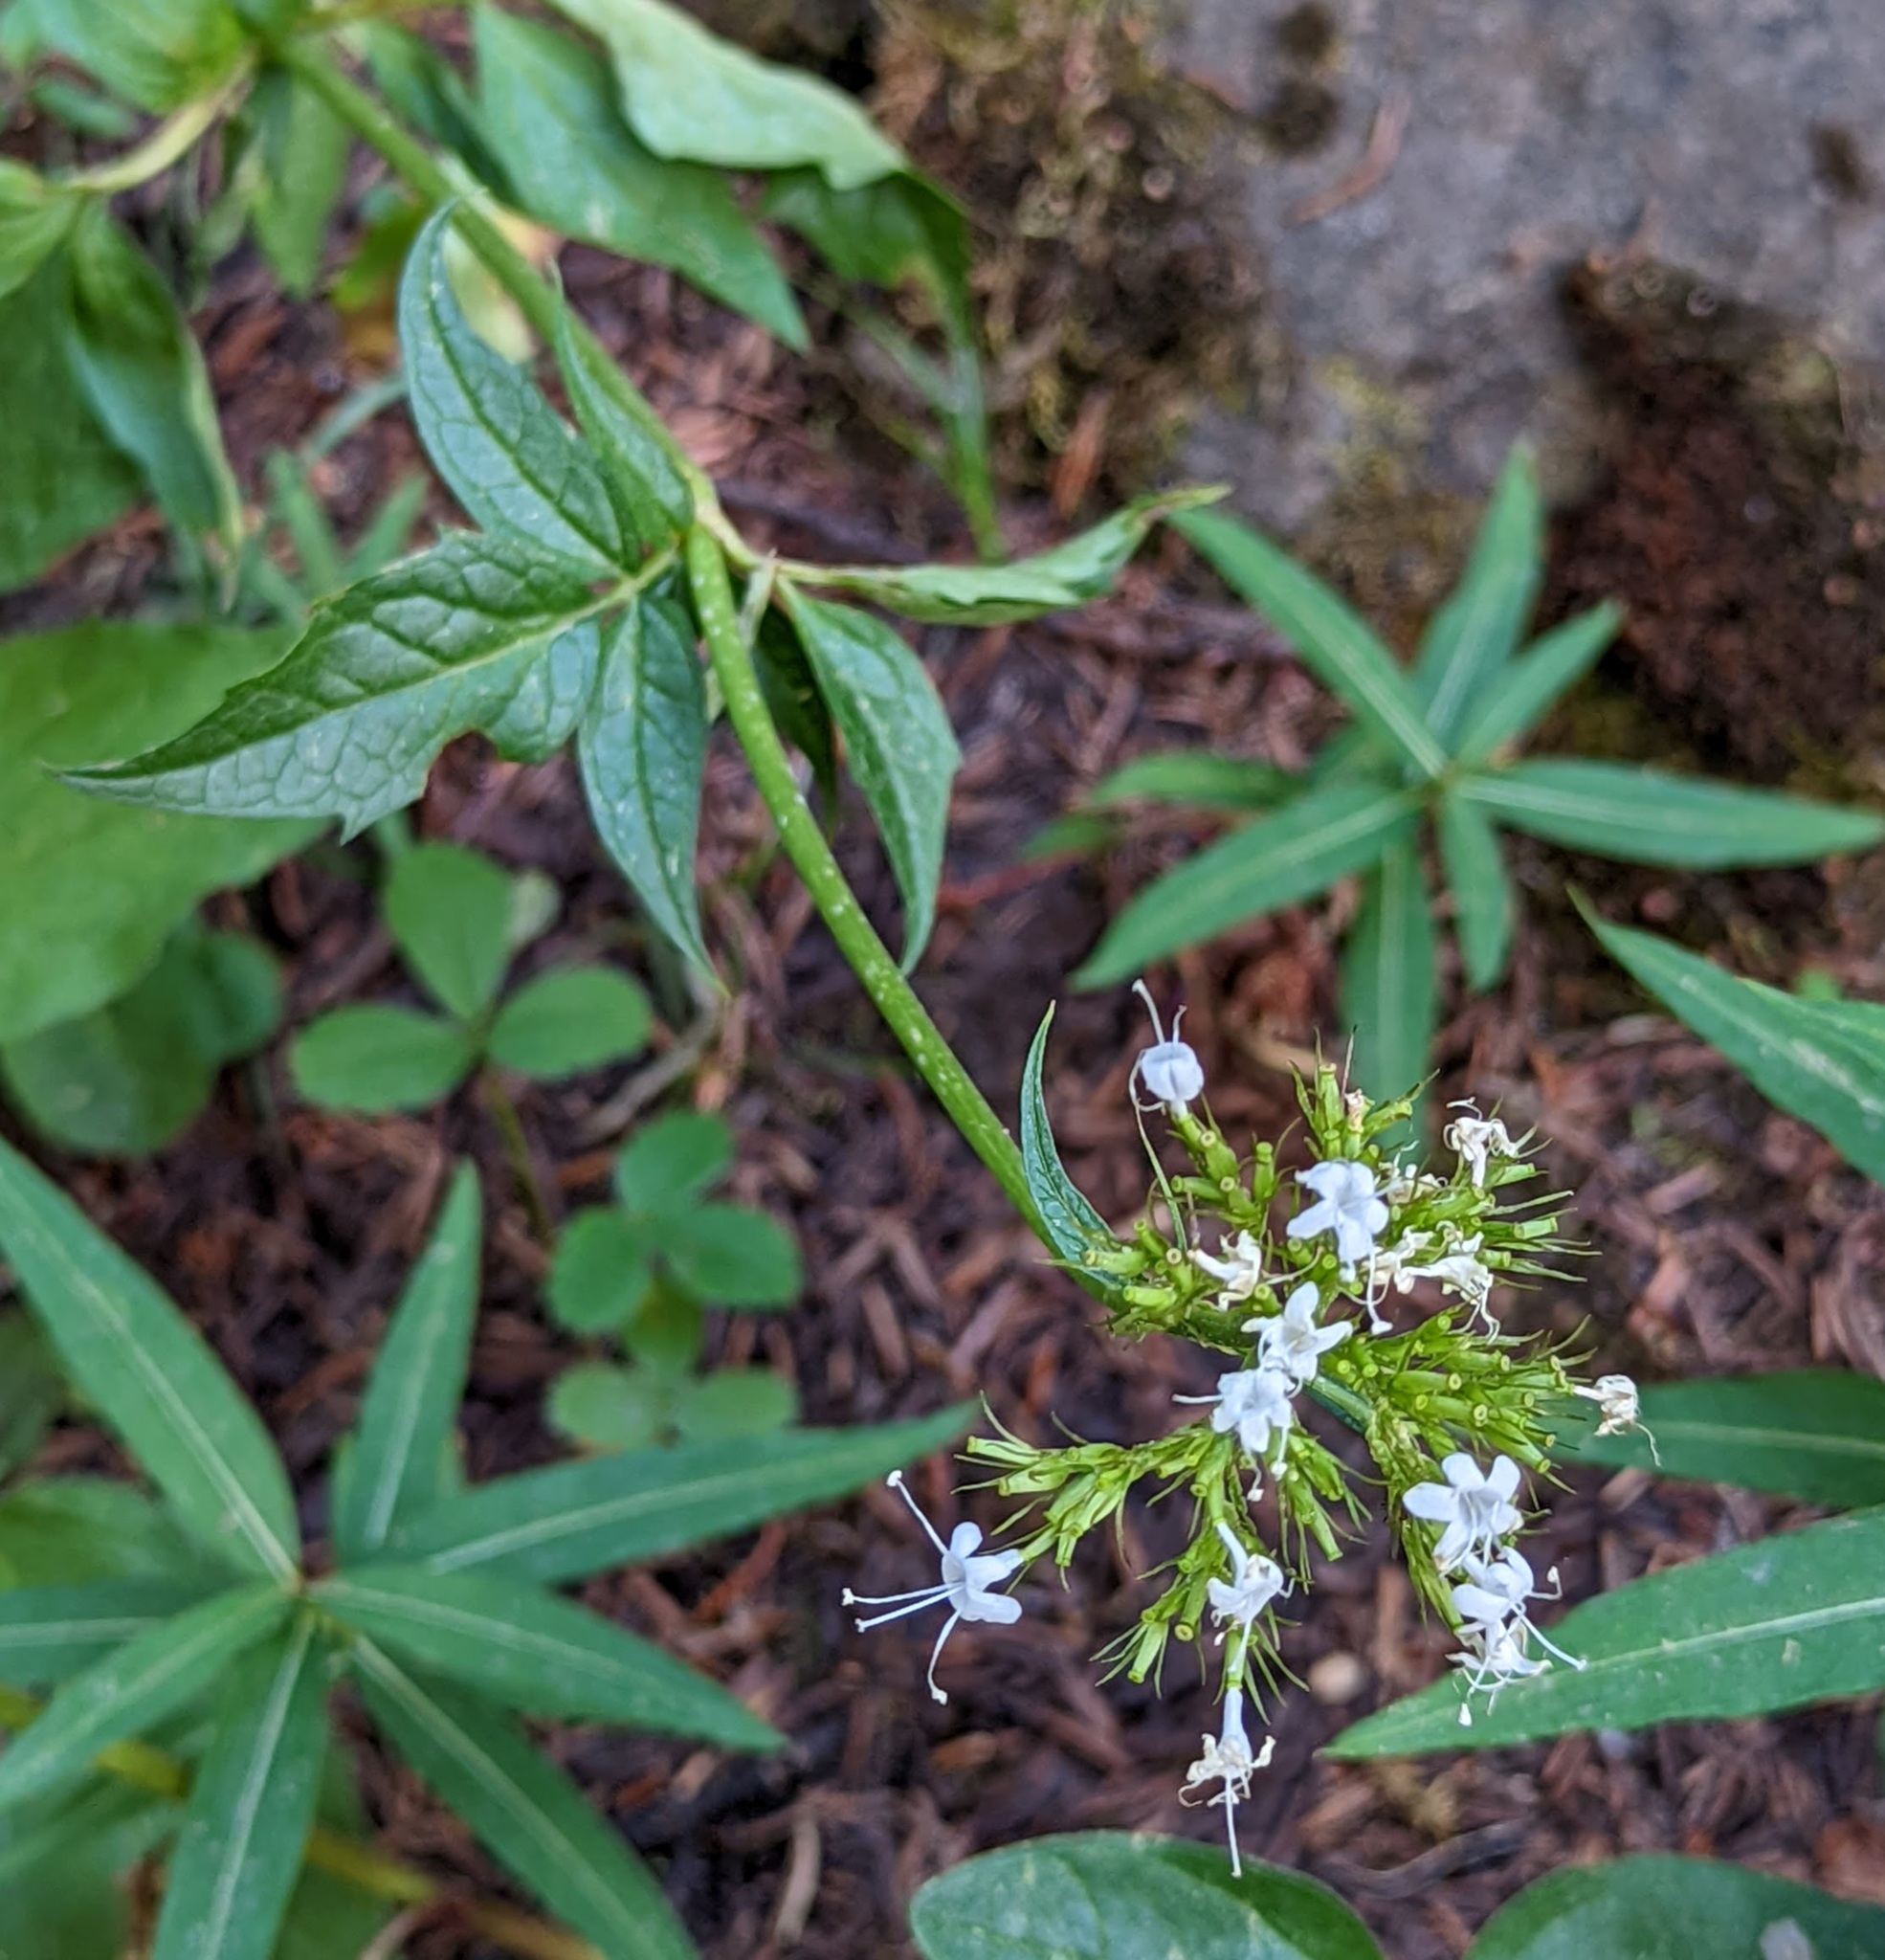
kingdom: Plantae
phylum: Tracheophyta
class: Magnoliopsida
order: Dipsacales
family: Caprifoliaceae
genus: Valeriana
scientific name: Valeriana sitchensis
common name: Pacific valerian
